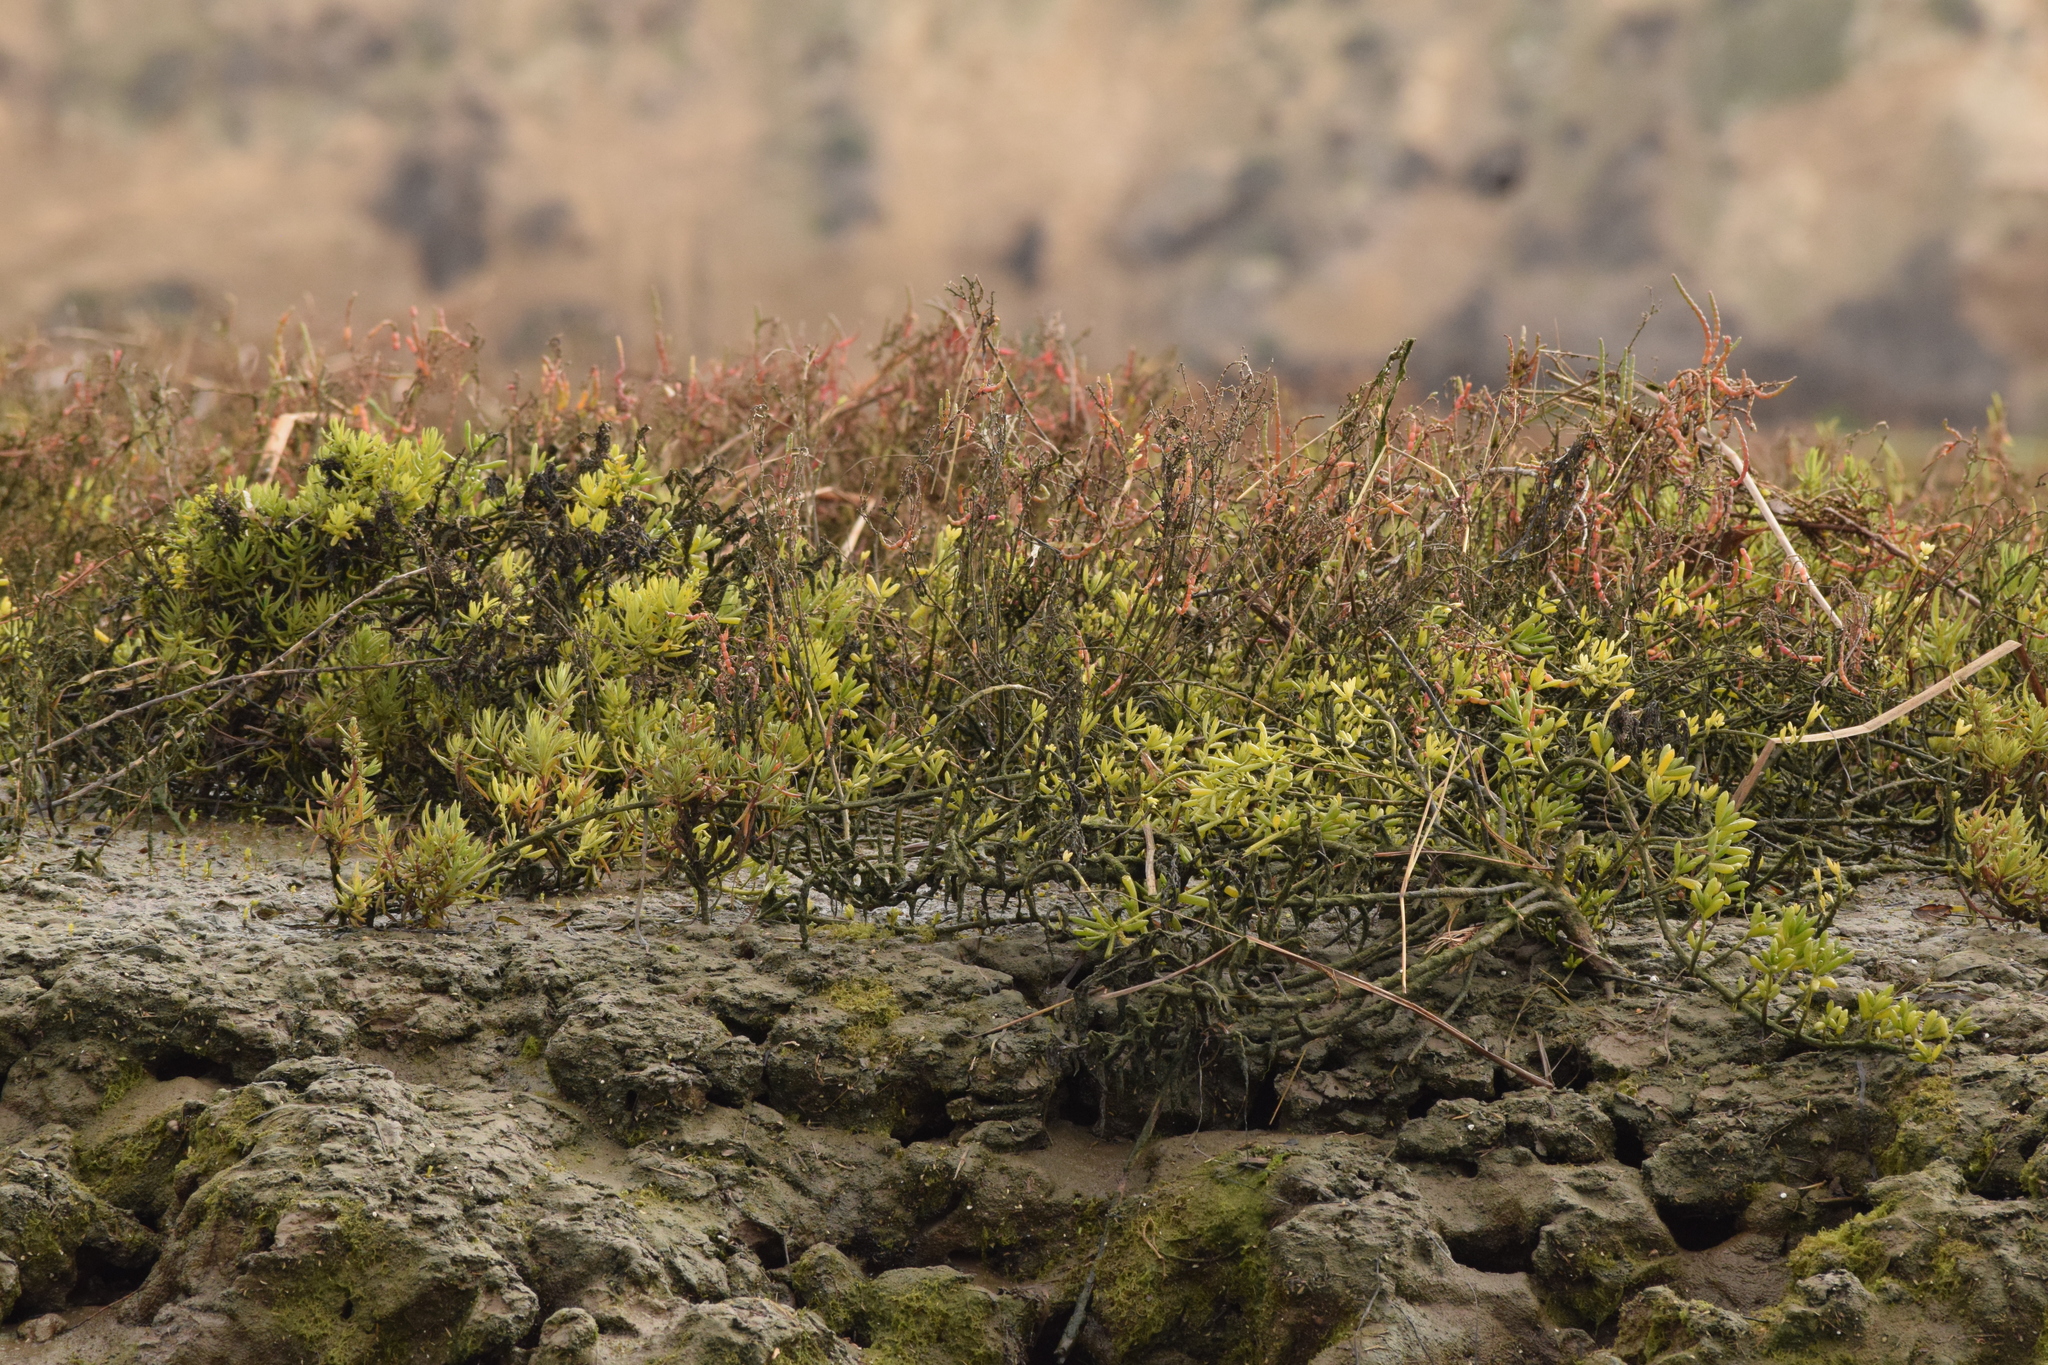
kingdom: Plantae
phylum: Tracheophyta
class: Magnoliopsida
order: Brassicales
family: Bataceae
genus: Batis
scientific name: Batis maritima
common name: Turtleweed
